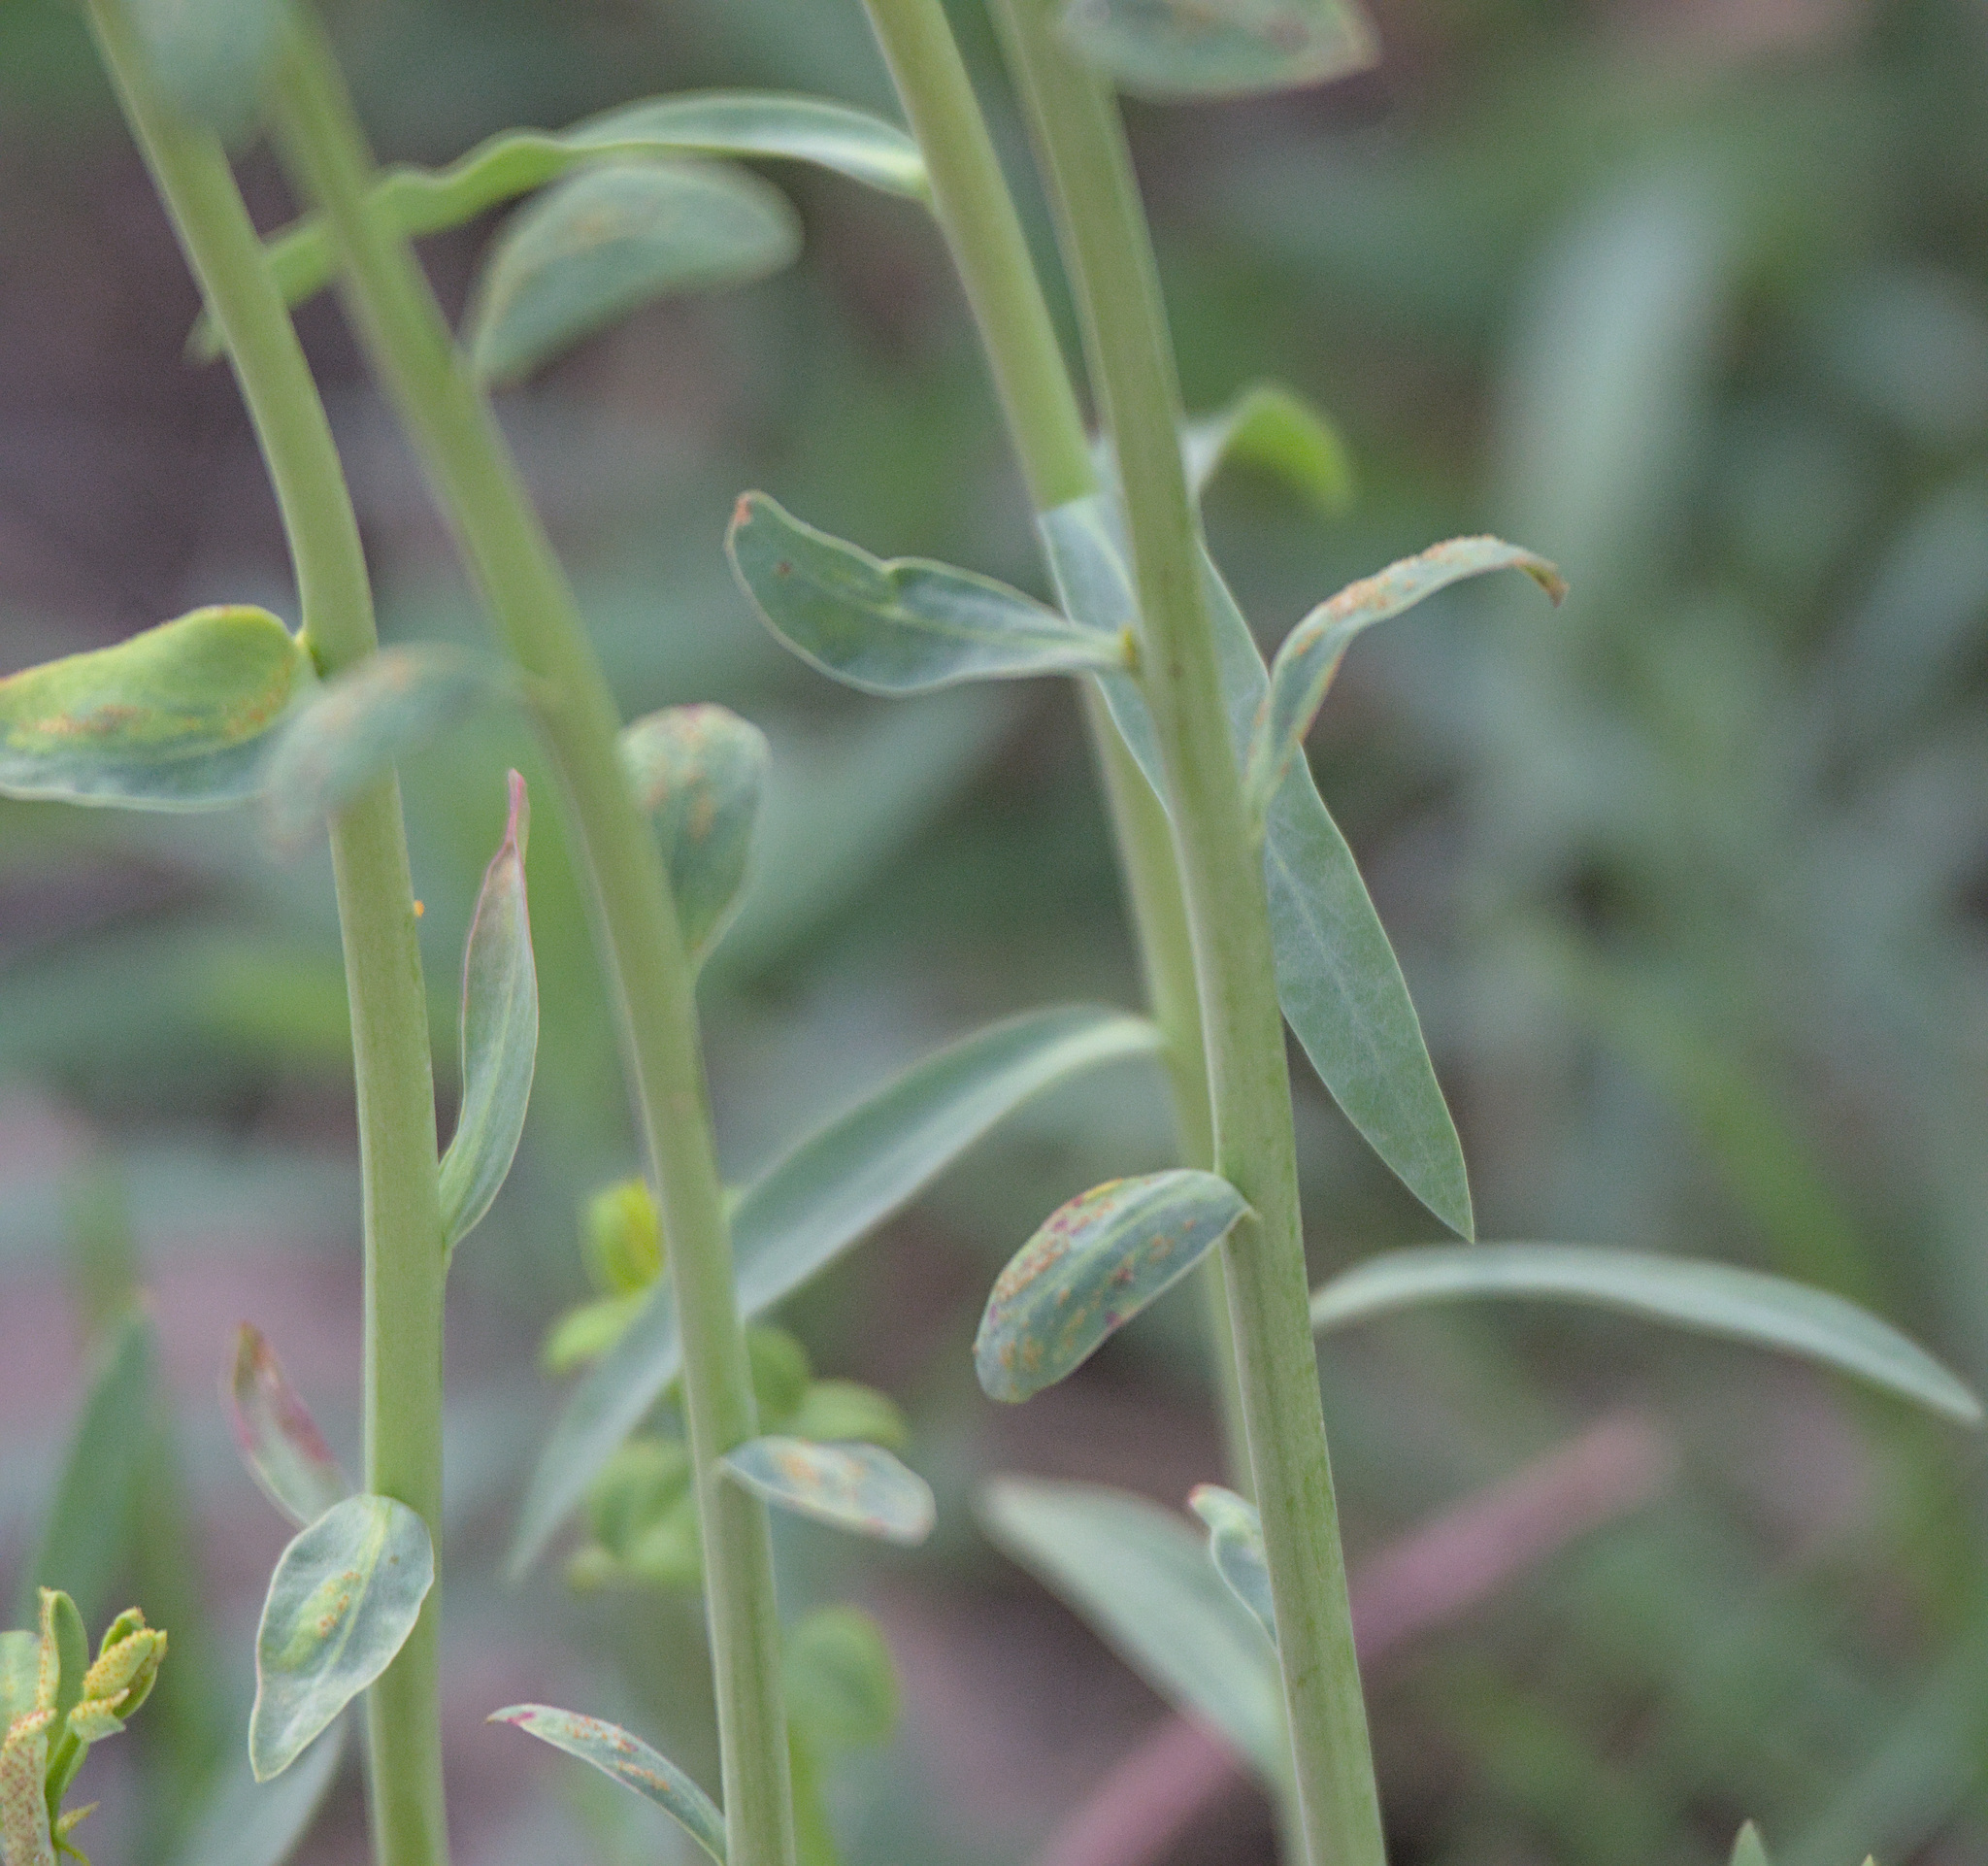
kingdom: Plantae
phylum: Tracheophyta
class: Magnoliopsida
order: Malpighiales
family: Euphorbiaceae
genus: Euphorbia
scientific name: Euphorbia virgata
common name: Leafy spurge
